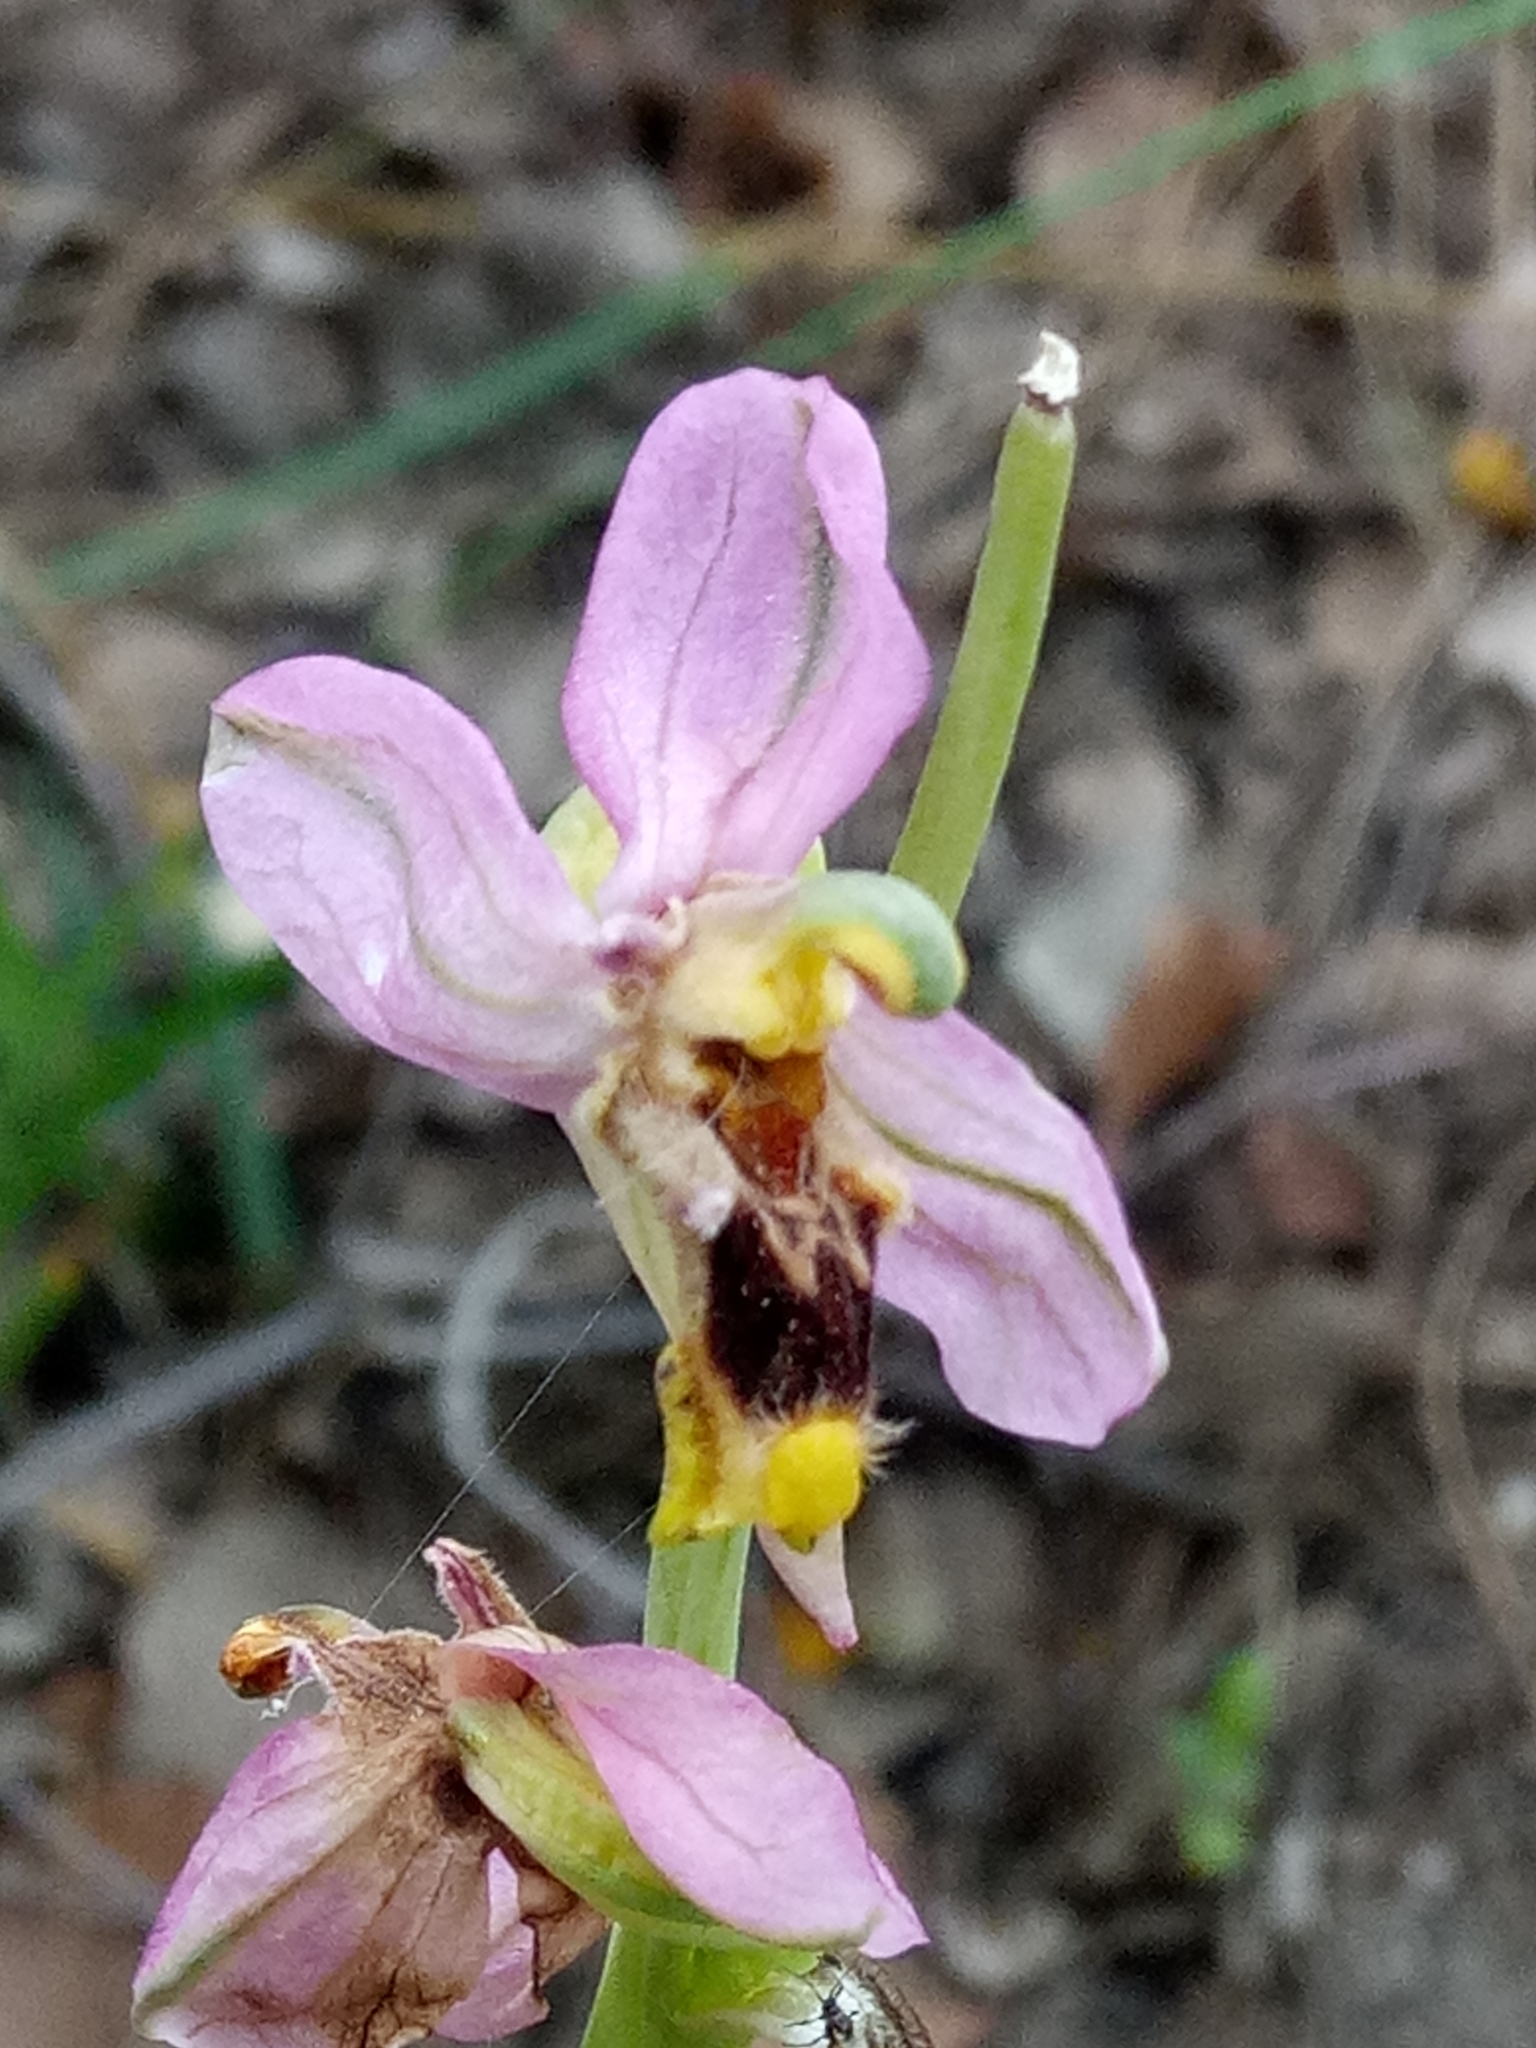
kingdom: Plantae
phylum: Tracheophyta
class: Liliopsida
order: Asparagales
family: Orchidaceae
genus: Ophrys
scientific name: Ophrys tenthredinifera
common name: Sawfly orchid
